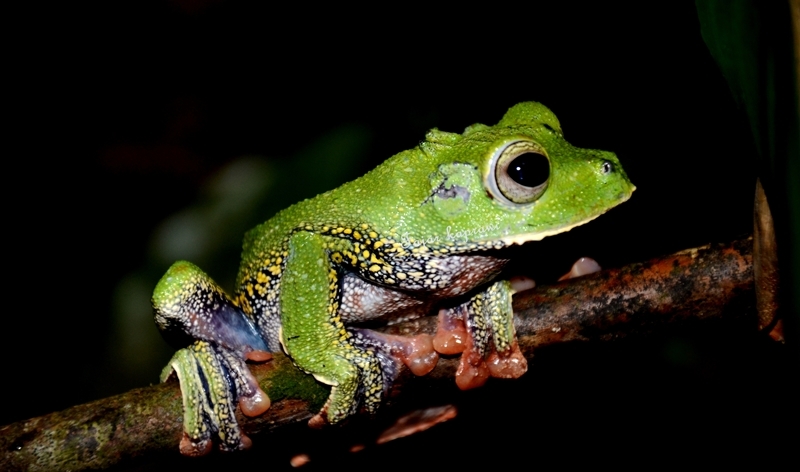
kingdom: Animalia
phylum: Chordata
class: Amphibia
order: Anura
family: Rhacophoridae
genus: Rhacophorus
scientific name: Rhacophorus georgii
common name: Tuwa flying frog
